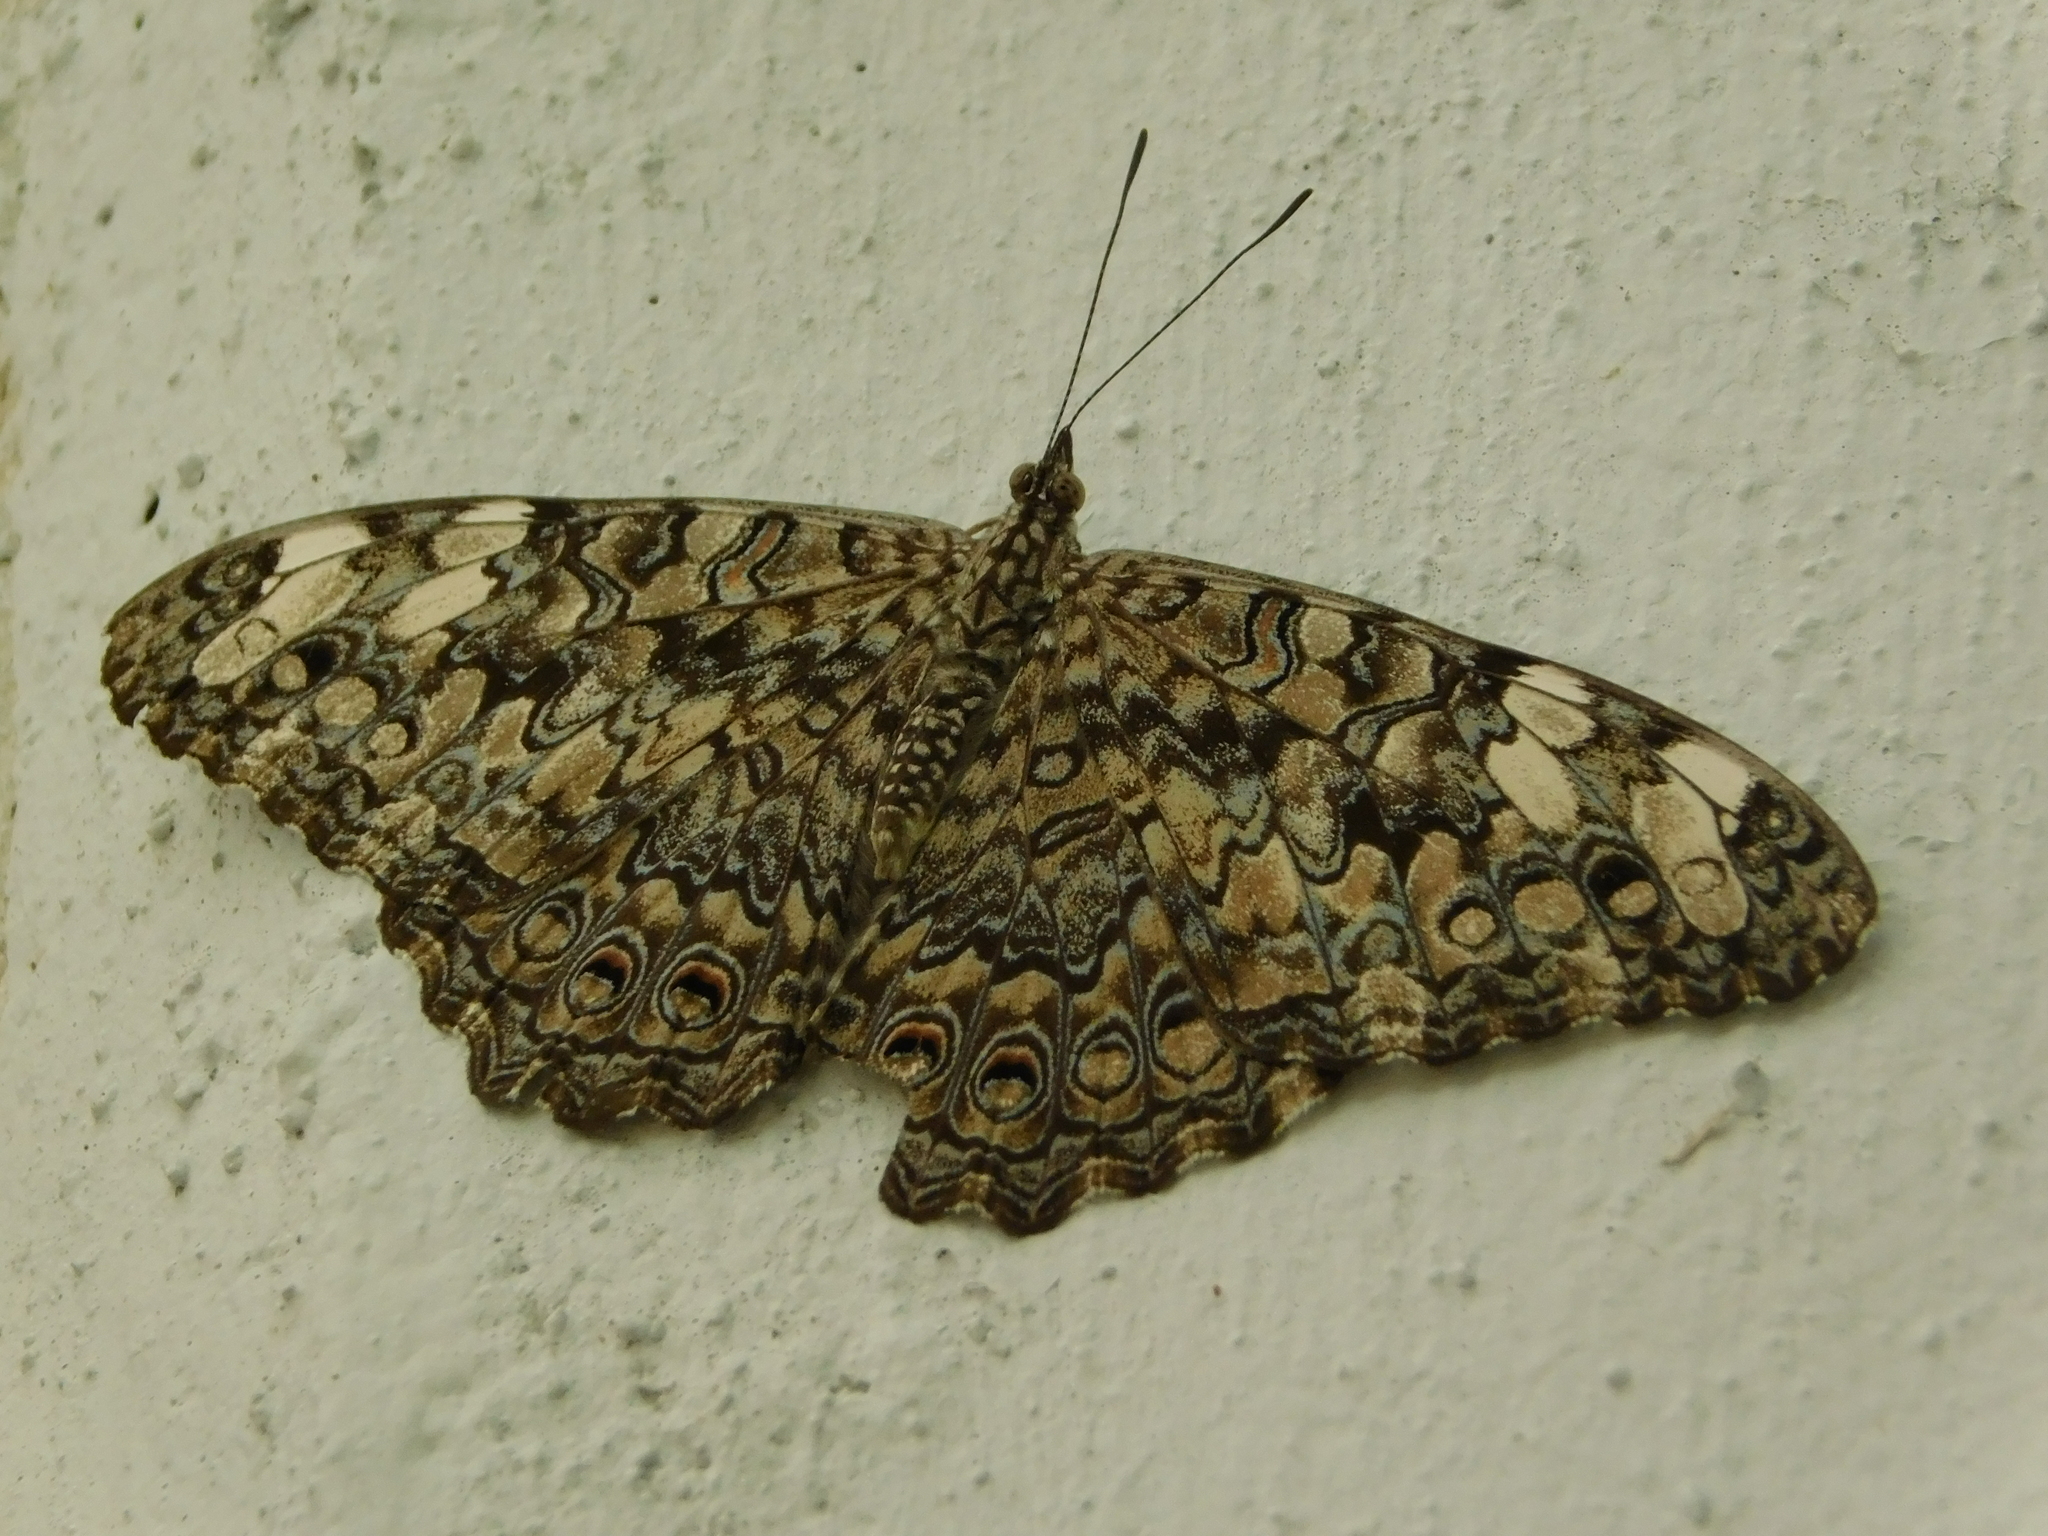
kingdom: Animalia
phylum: Arthropoda
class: Insecta
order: Lepidoptera
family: Nymphalidae
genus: Hamadryas
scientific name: Hamadryas februa
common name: Gray cracker
